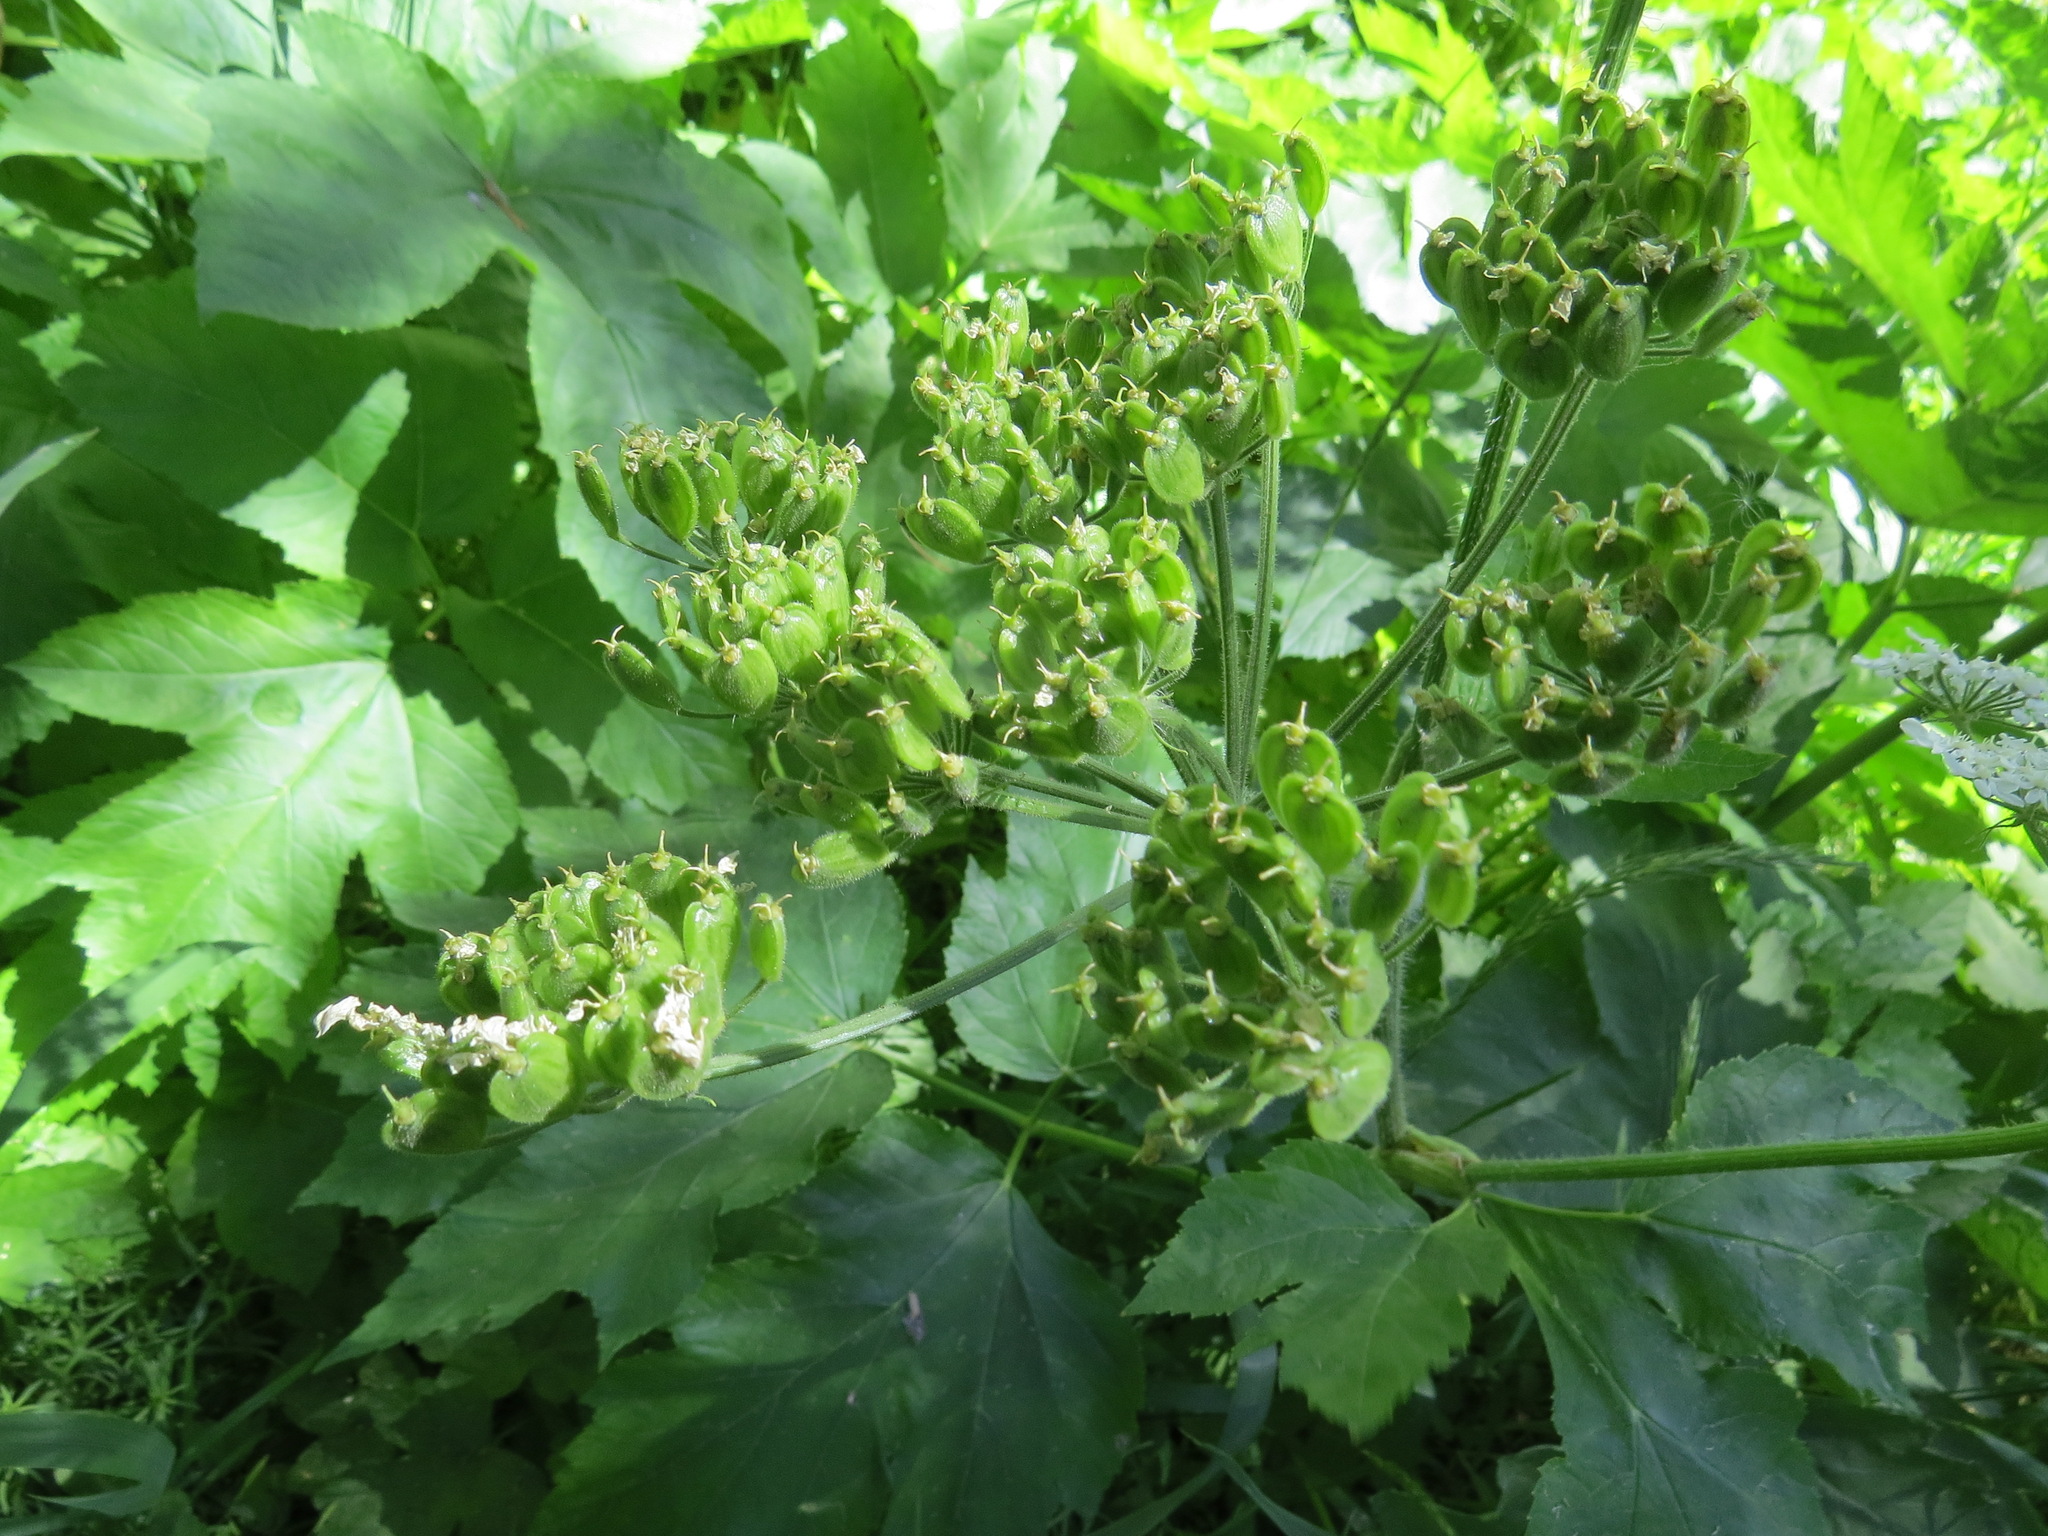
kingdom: Plantae
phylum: Tracheophyta
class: Magnoliopsida
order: Apiales
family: Apiaceae
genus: Heracleum
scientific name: Heracleum maximum
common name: American cow parsnip
